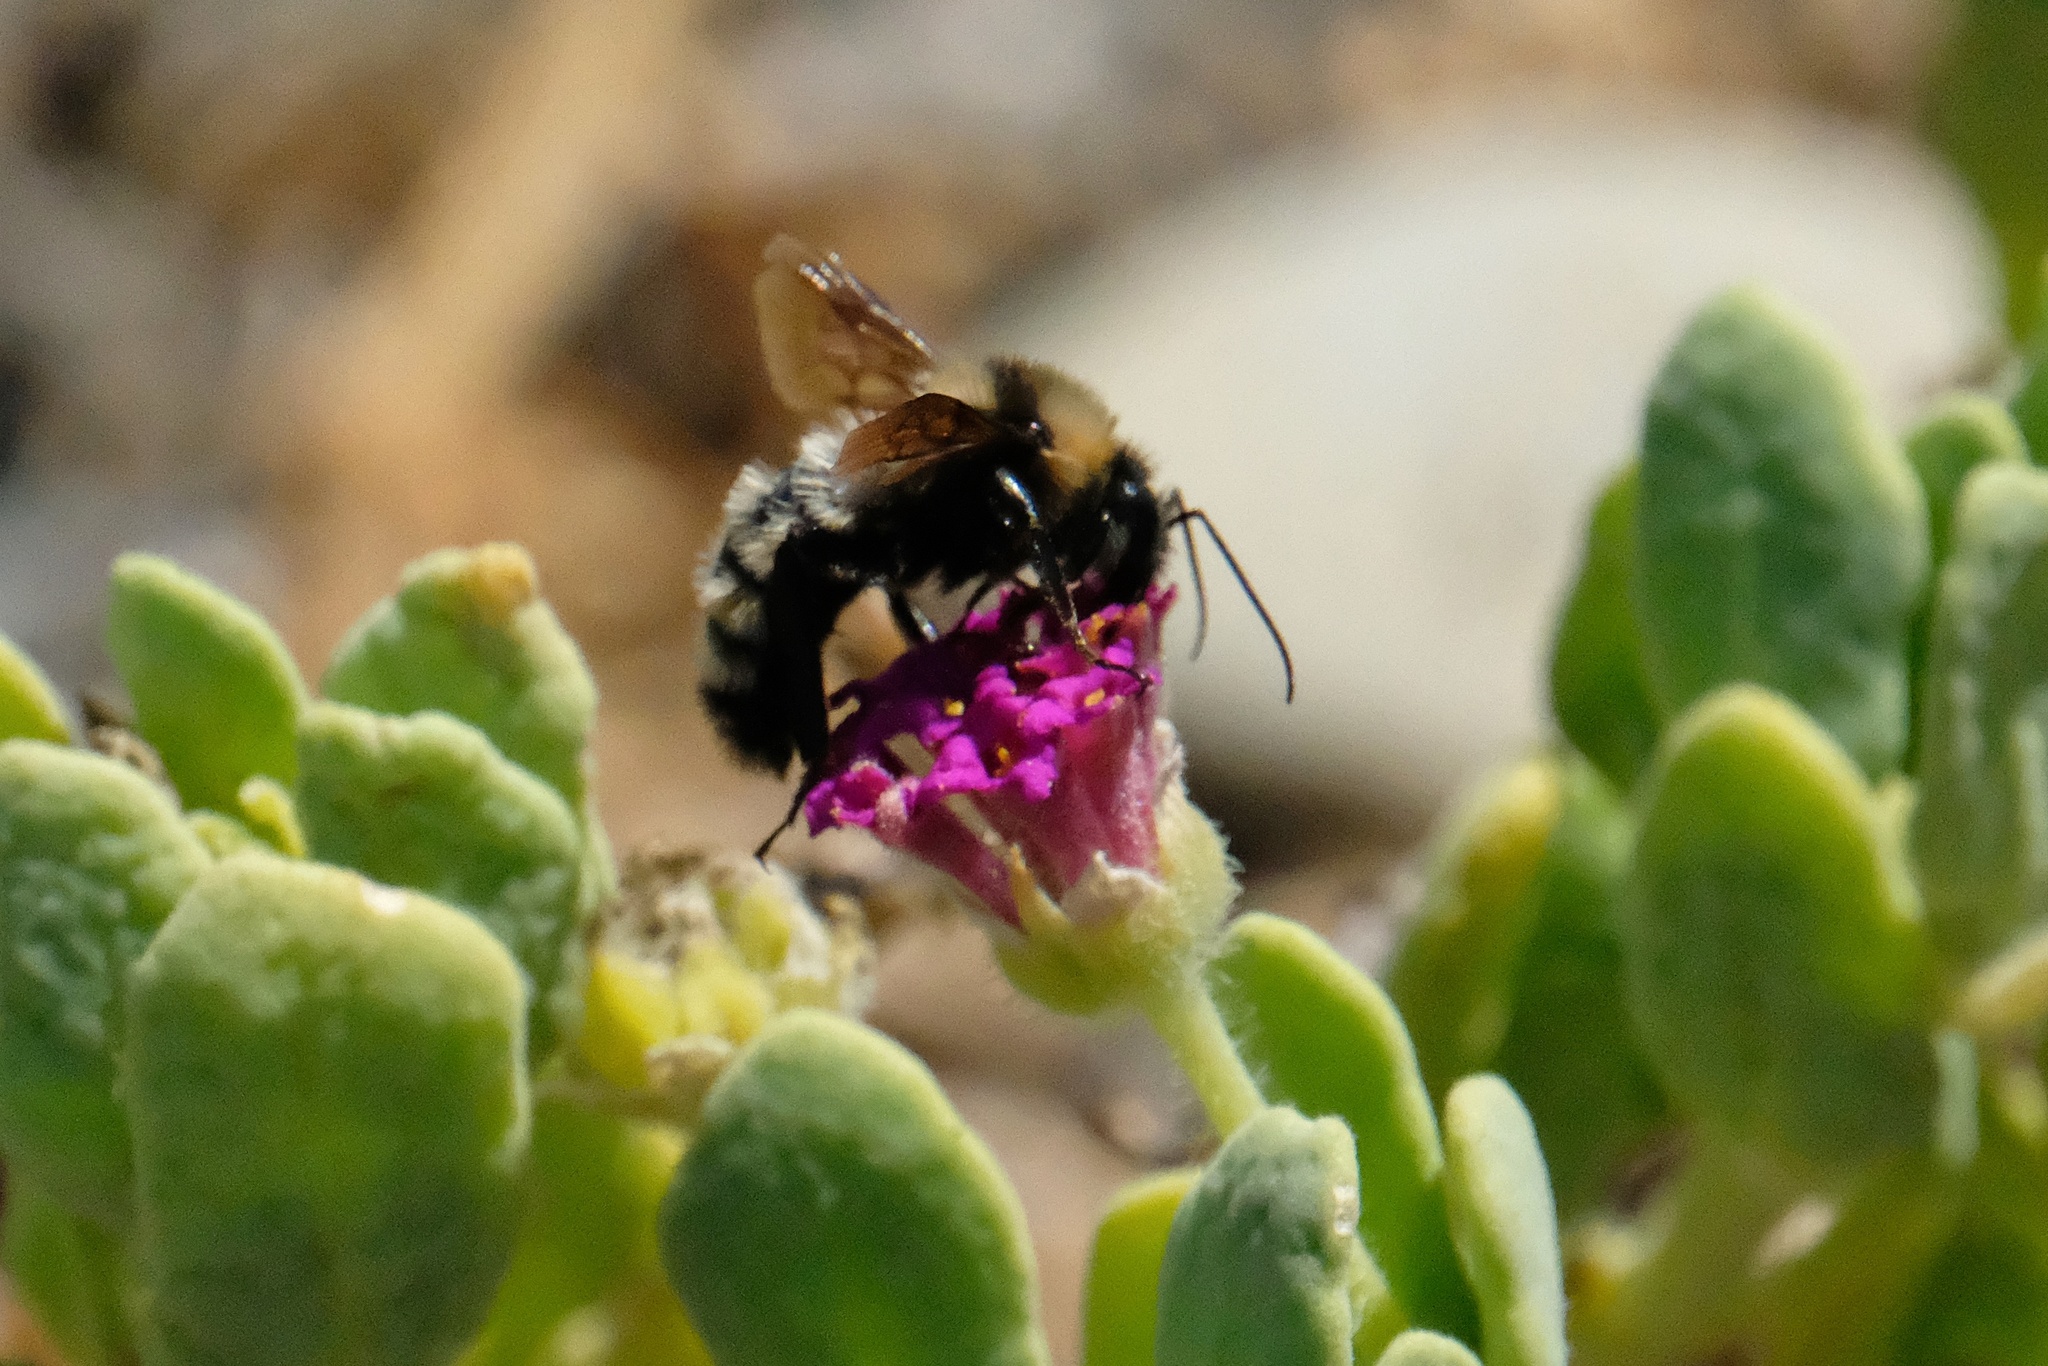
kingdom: Animalia
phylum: Arthropoda
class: Insecta
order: Hymenoptera
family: Apidae
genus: Bombus
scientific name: Bombus sonorus
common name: Sonoran bumble bee
